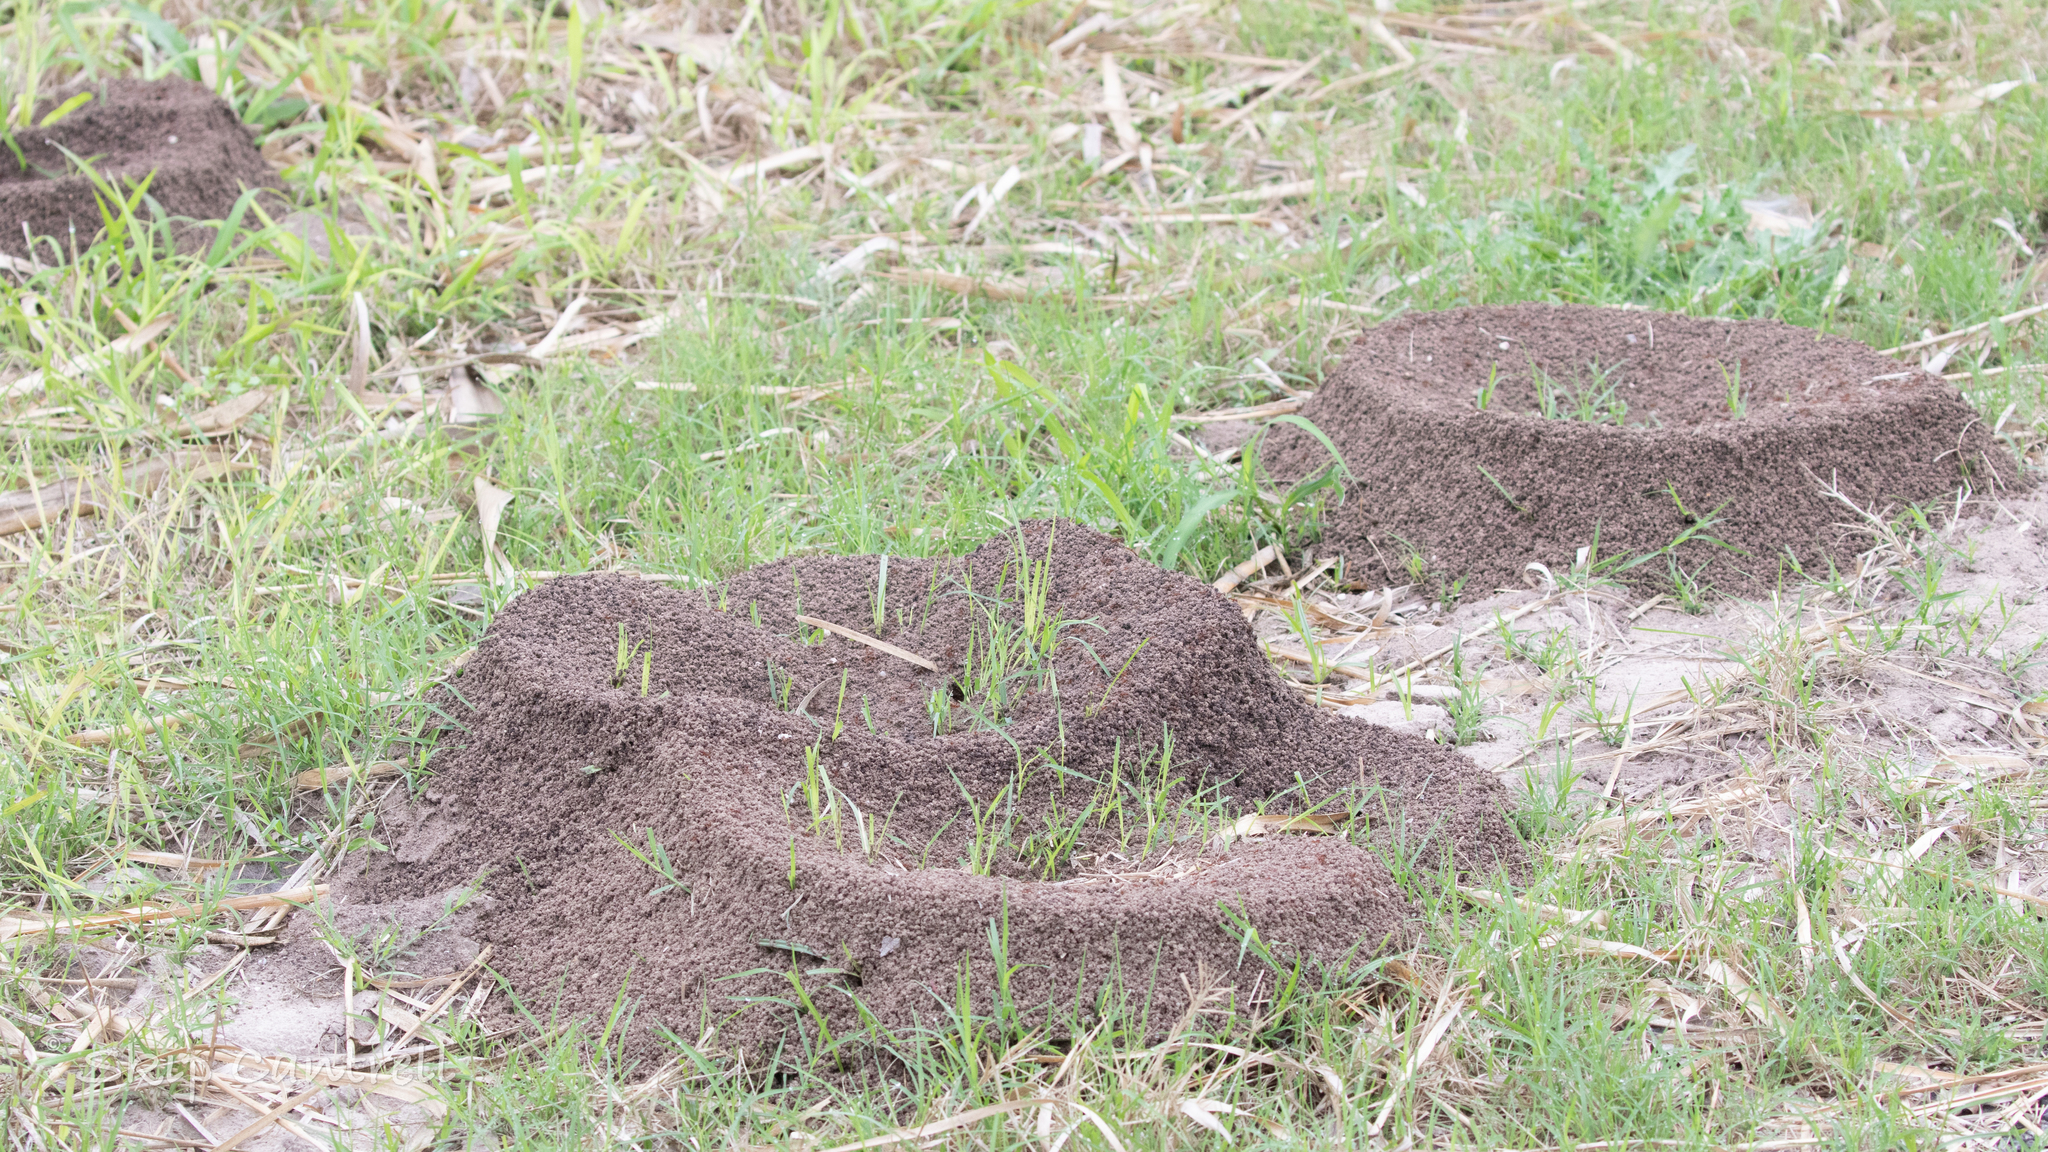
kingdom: Animalia
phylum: Arthropoda
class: Insecta
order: Hymenoptera
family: Formicidae
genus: Atta
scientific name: Atta texana
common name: Texas leafcutting ant
